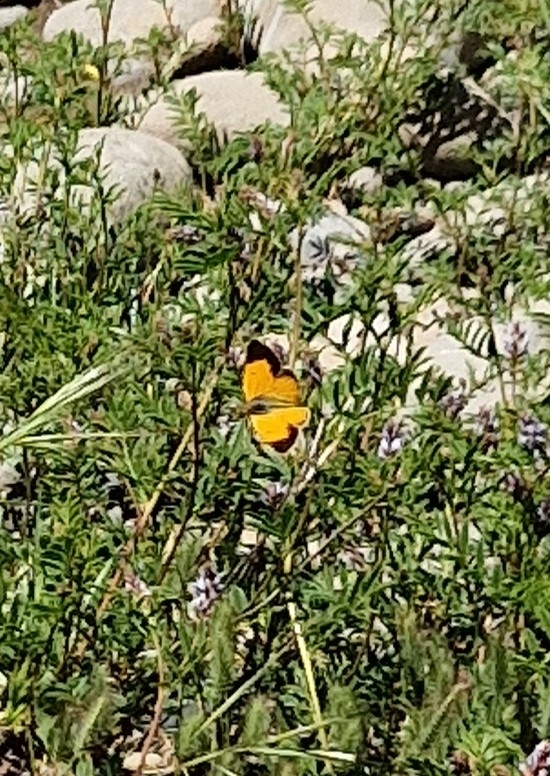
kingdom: Animalia
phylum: Arthropoda
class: Insecta
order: Lepidoptera
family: Pieridae
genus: Colias
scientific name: Colias vauthierii
